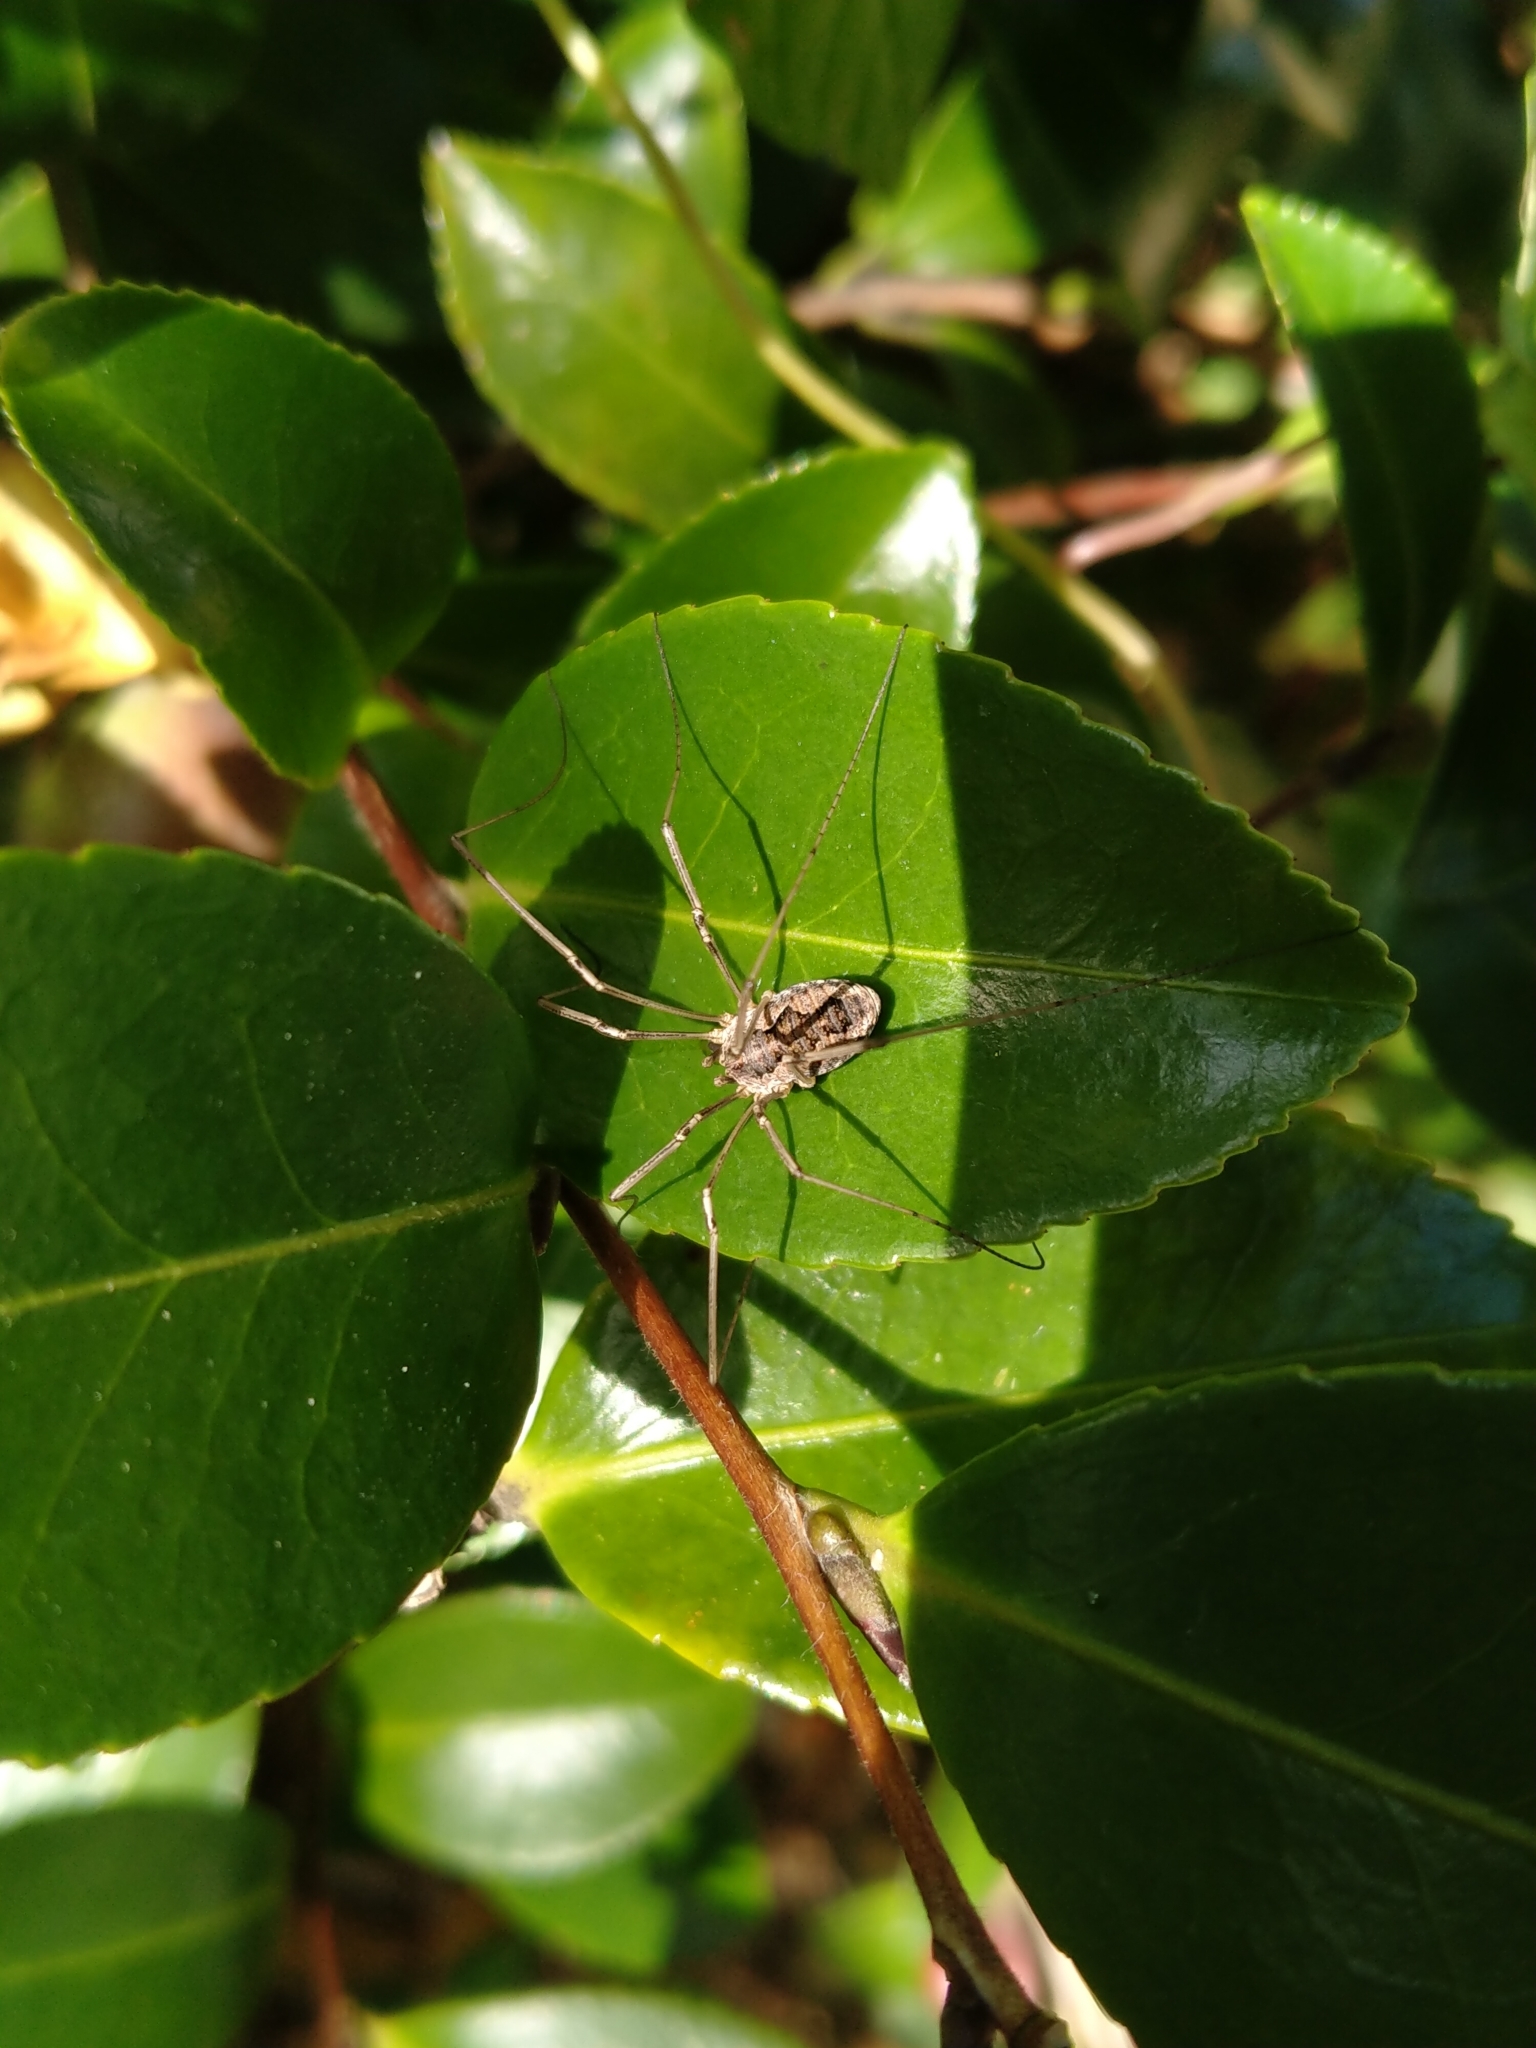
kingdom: Animalia
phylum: Arthropoda
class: Arachnida
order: Opiliones
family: Phalangiidae
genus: Phalangium
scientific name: Phalangium opilio
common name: Daddy longleg
